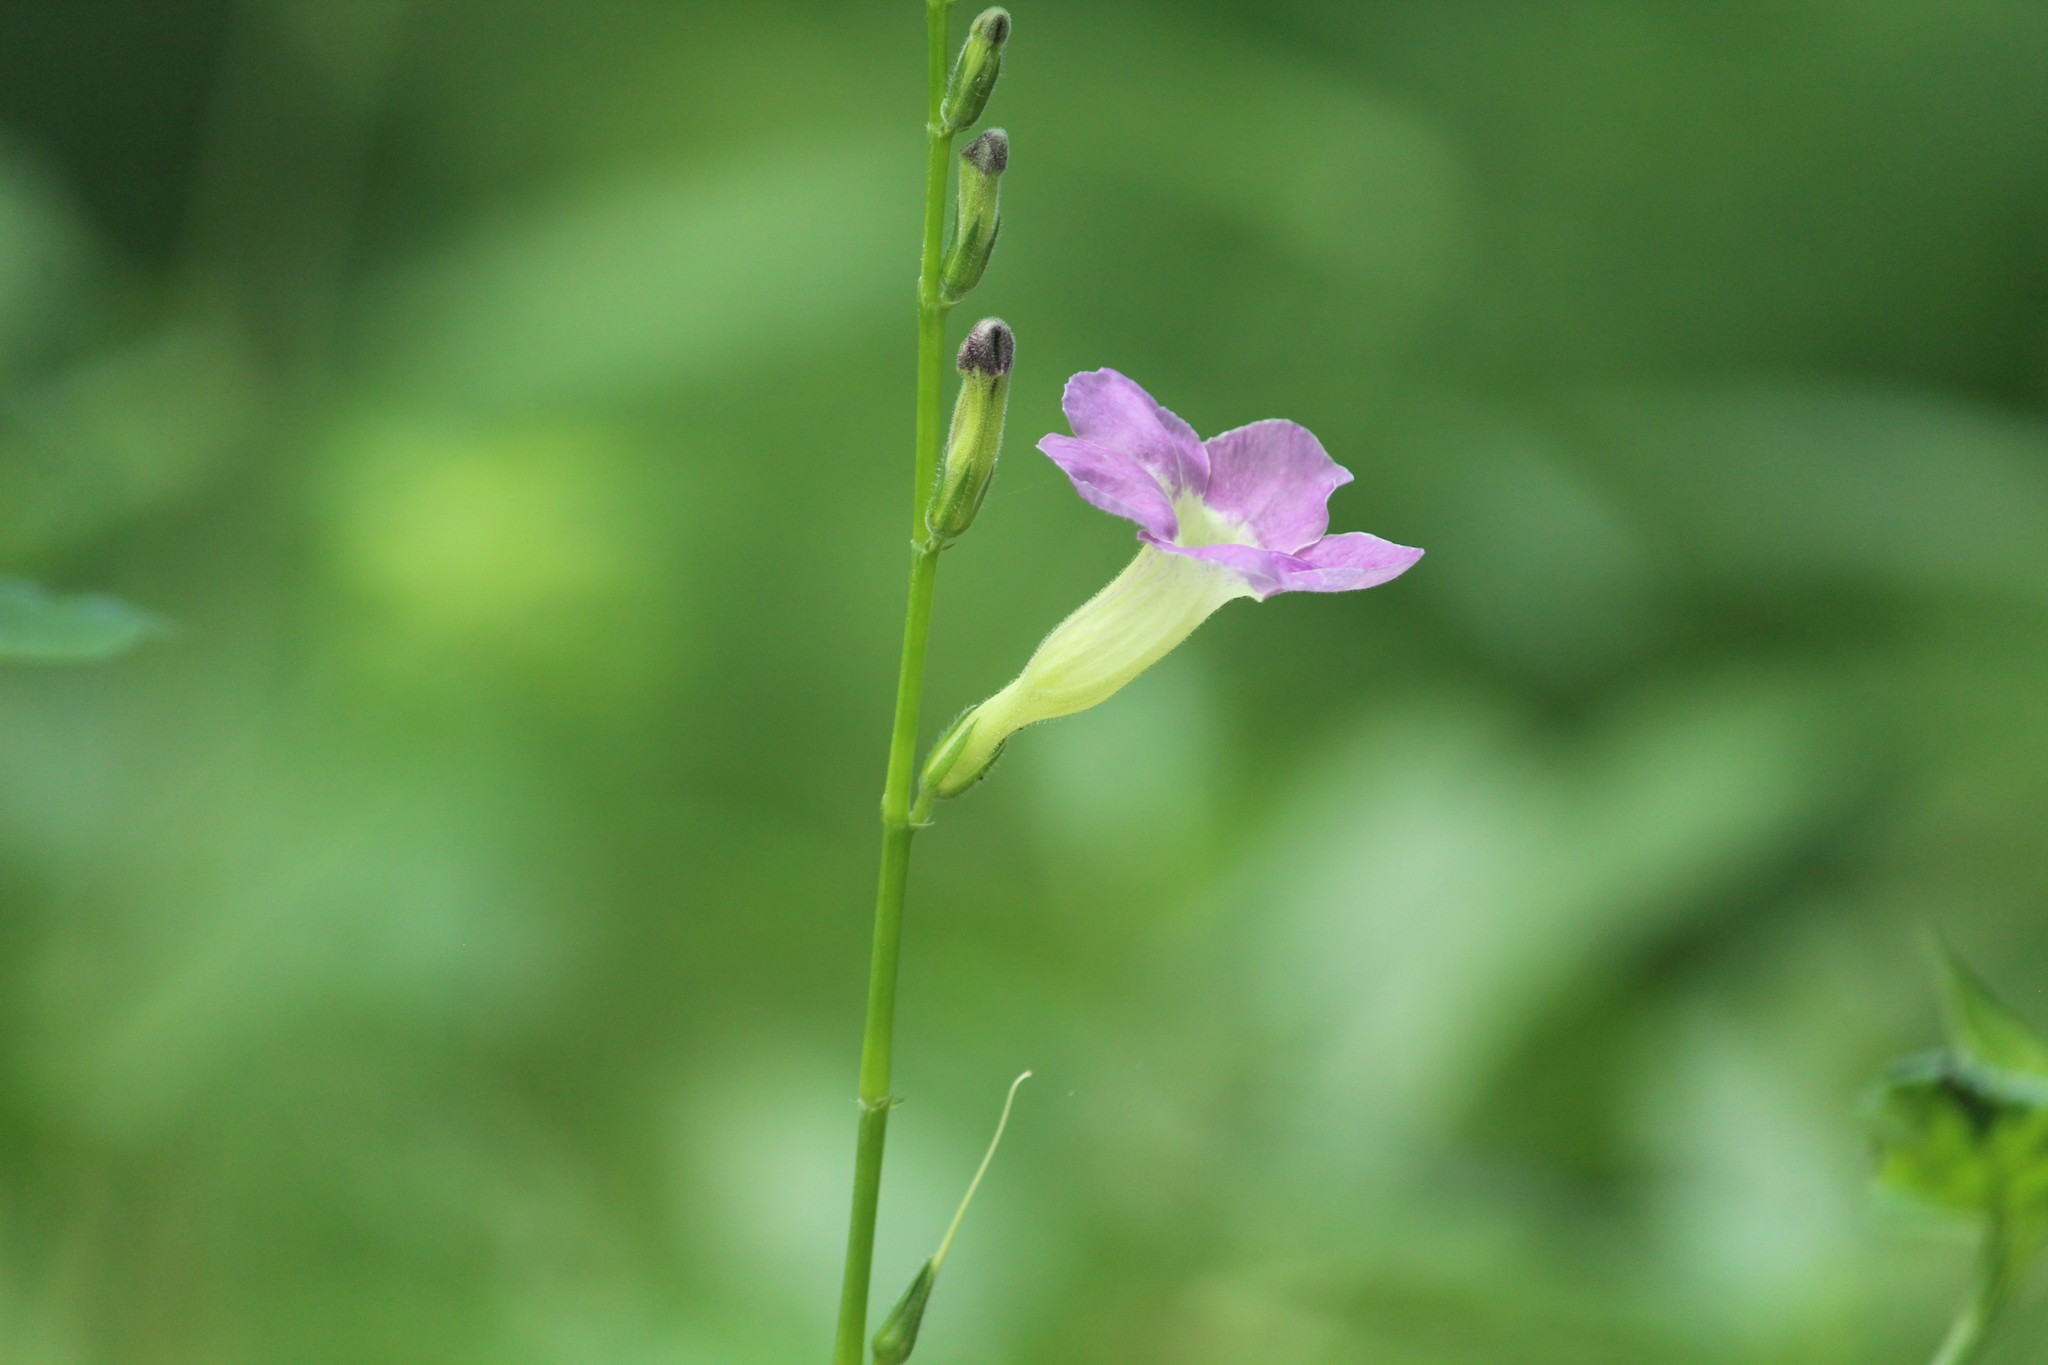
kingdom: Plantae
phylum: Tracheophyta
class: Magnoliopsida
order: Lamiales
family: Acanthaceae
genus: Asystasia
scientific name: Asystasia gangetica
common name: Chinese violet
